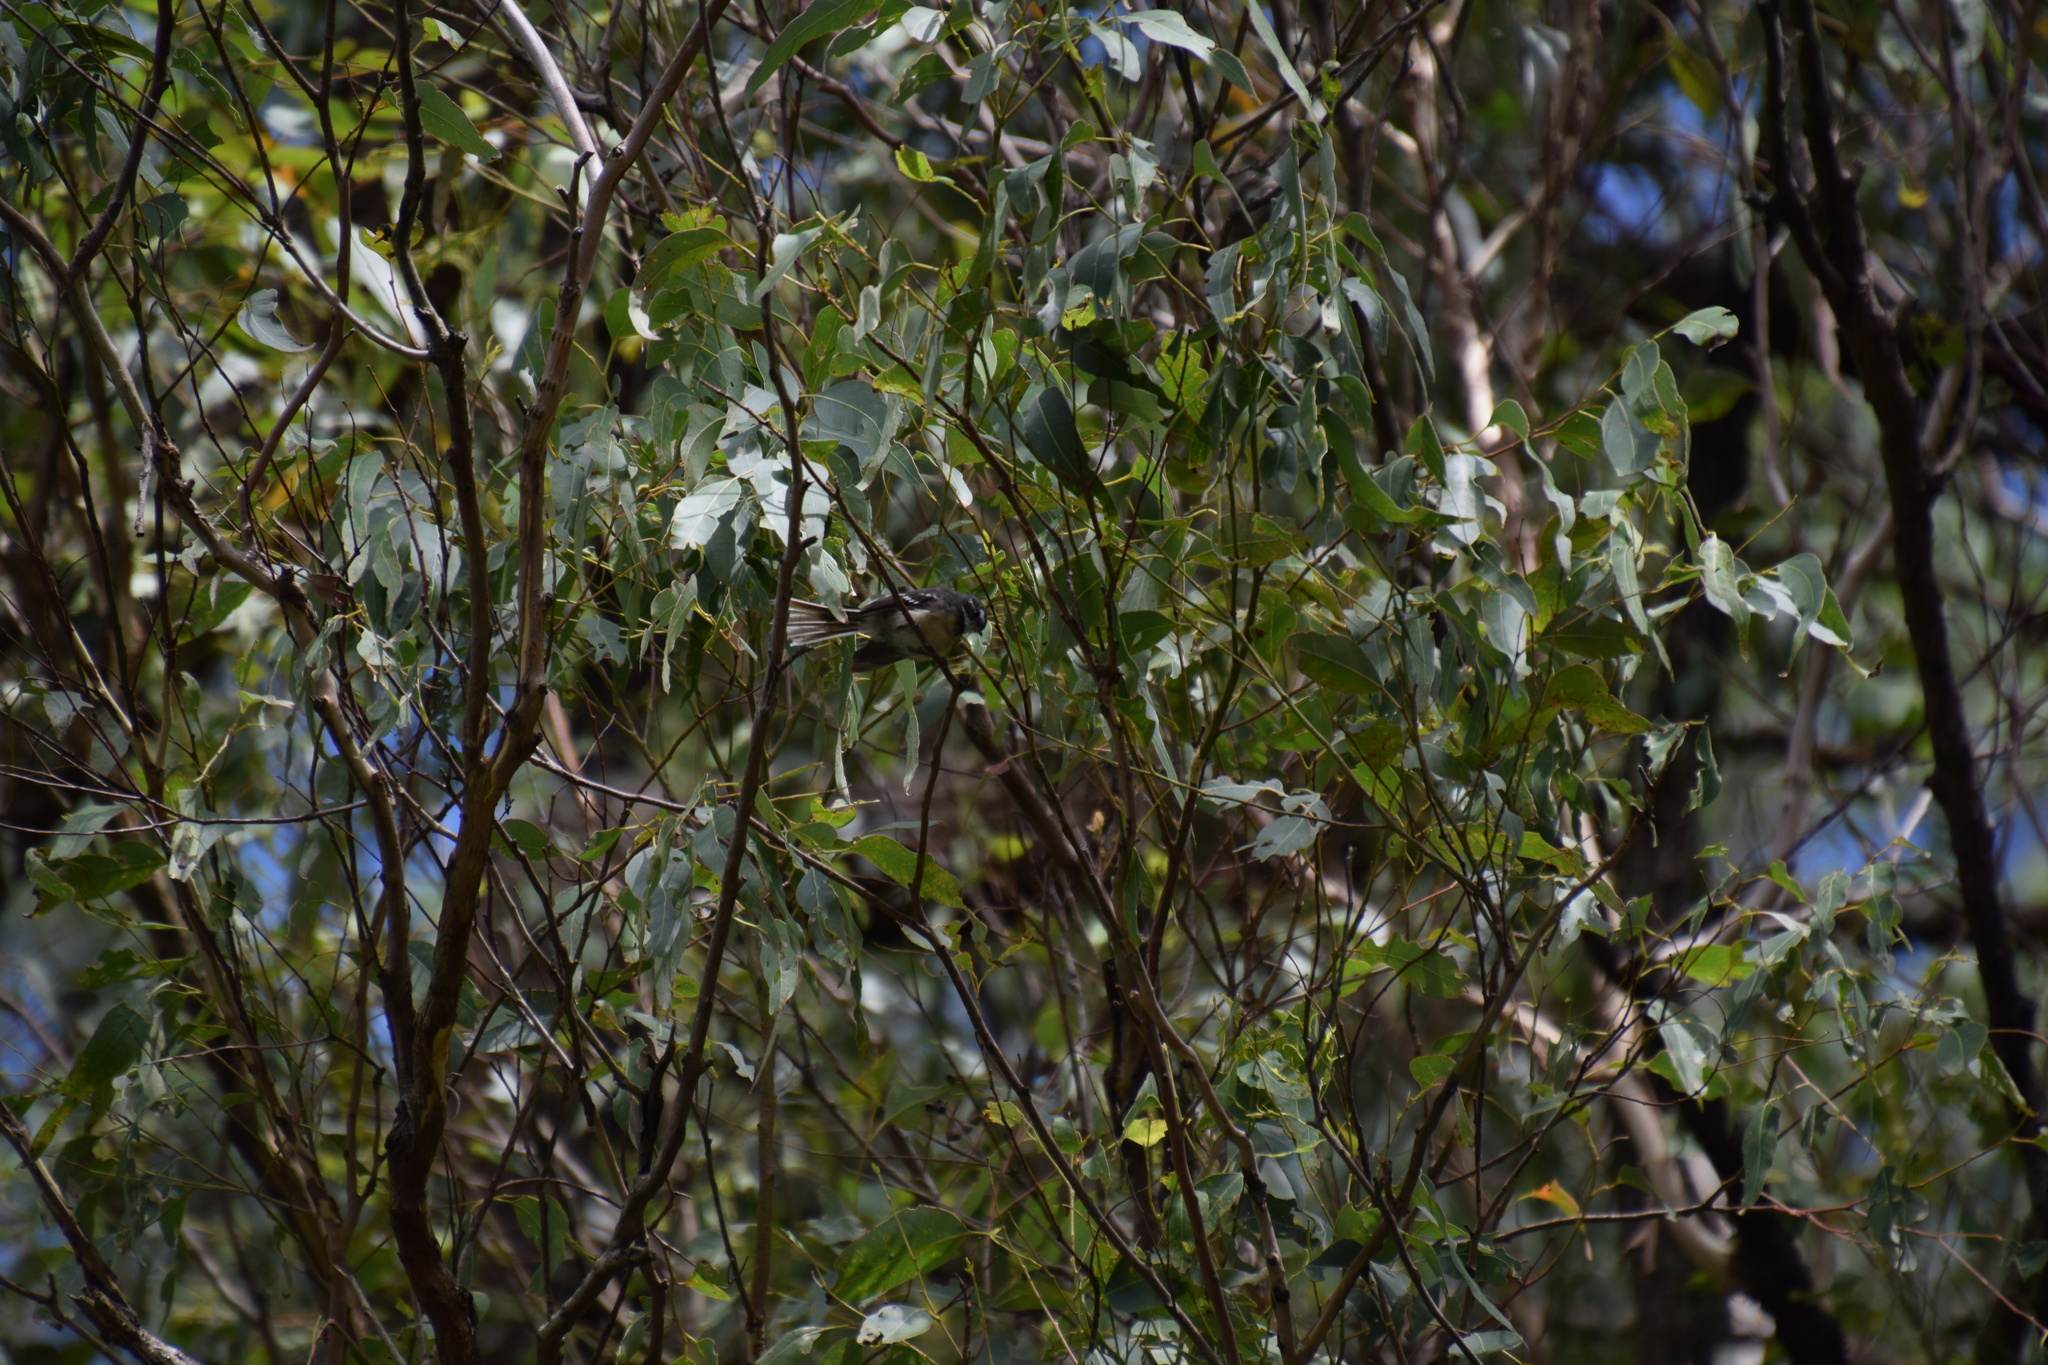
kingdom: Animalia
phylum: Chordata
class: Aves
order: Passeriformes
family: Rhipiduridae
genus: Rhipidura
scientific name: Rhipidura albiscapa
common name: Grey fantail
